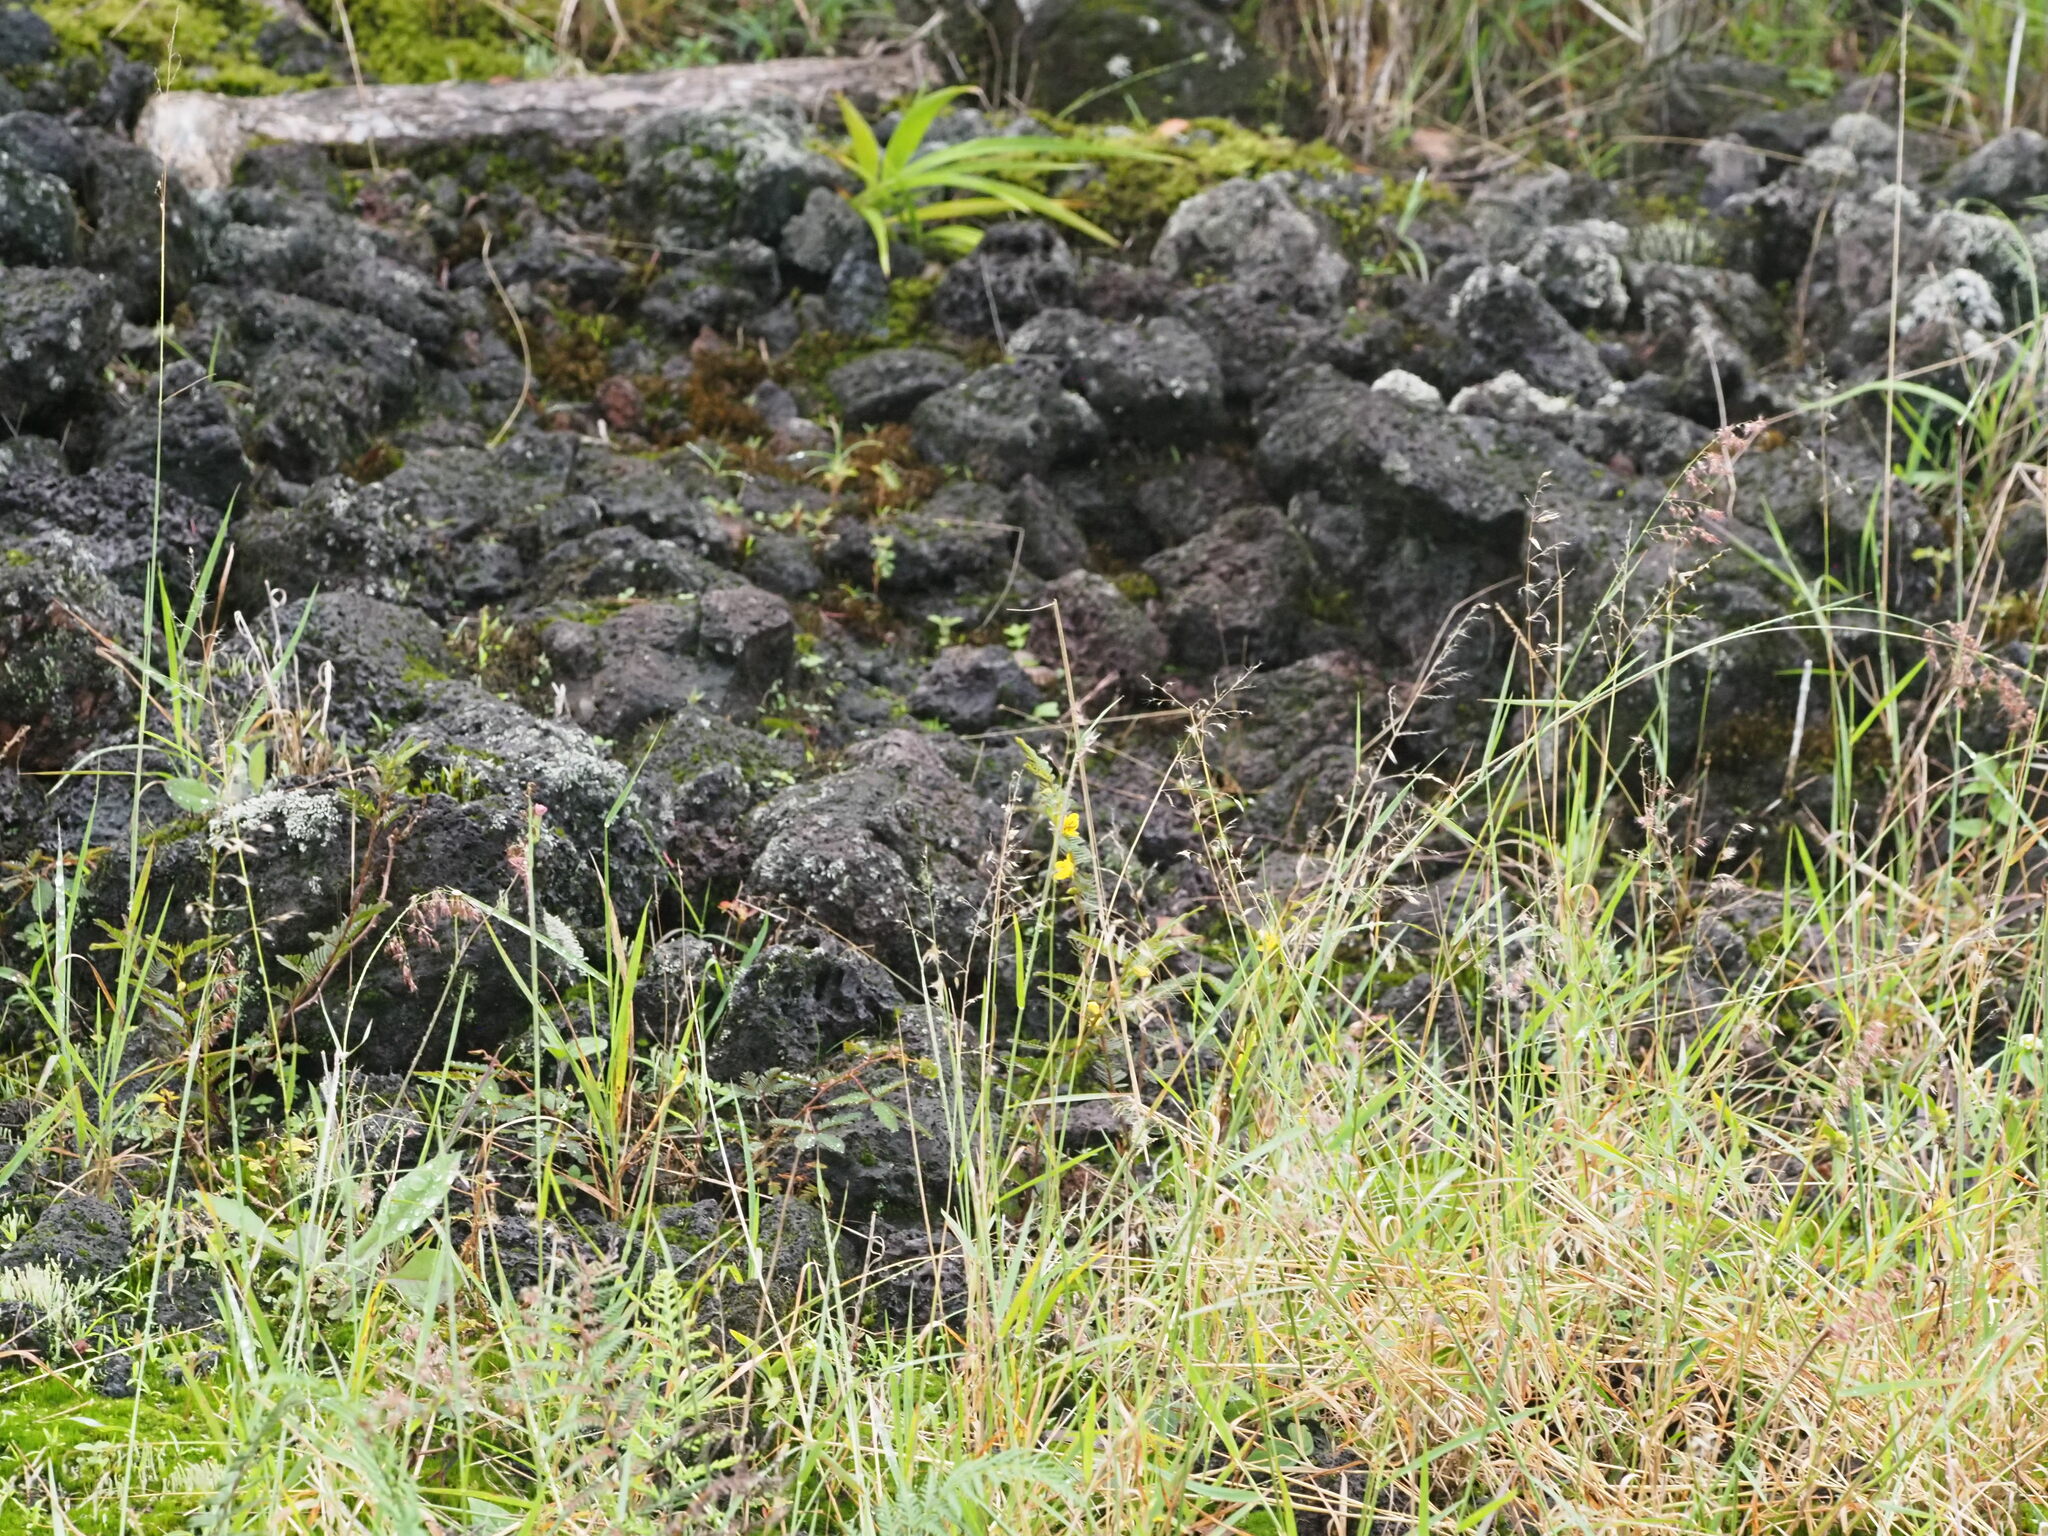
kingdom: Plantae
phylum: Tracheophyta
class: Liliopsida
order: Poales
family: Poaceae
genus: Melinis
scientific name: Melinis repens
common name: Rose natal grass
